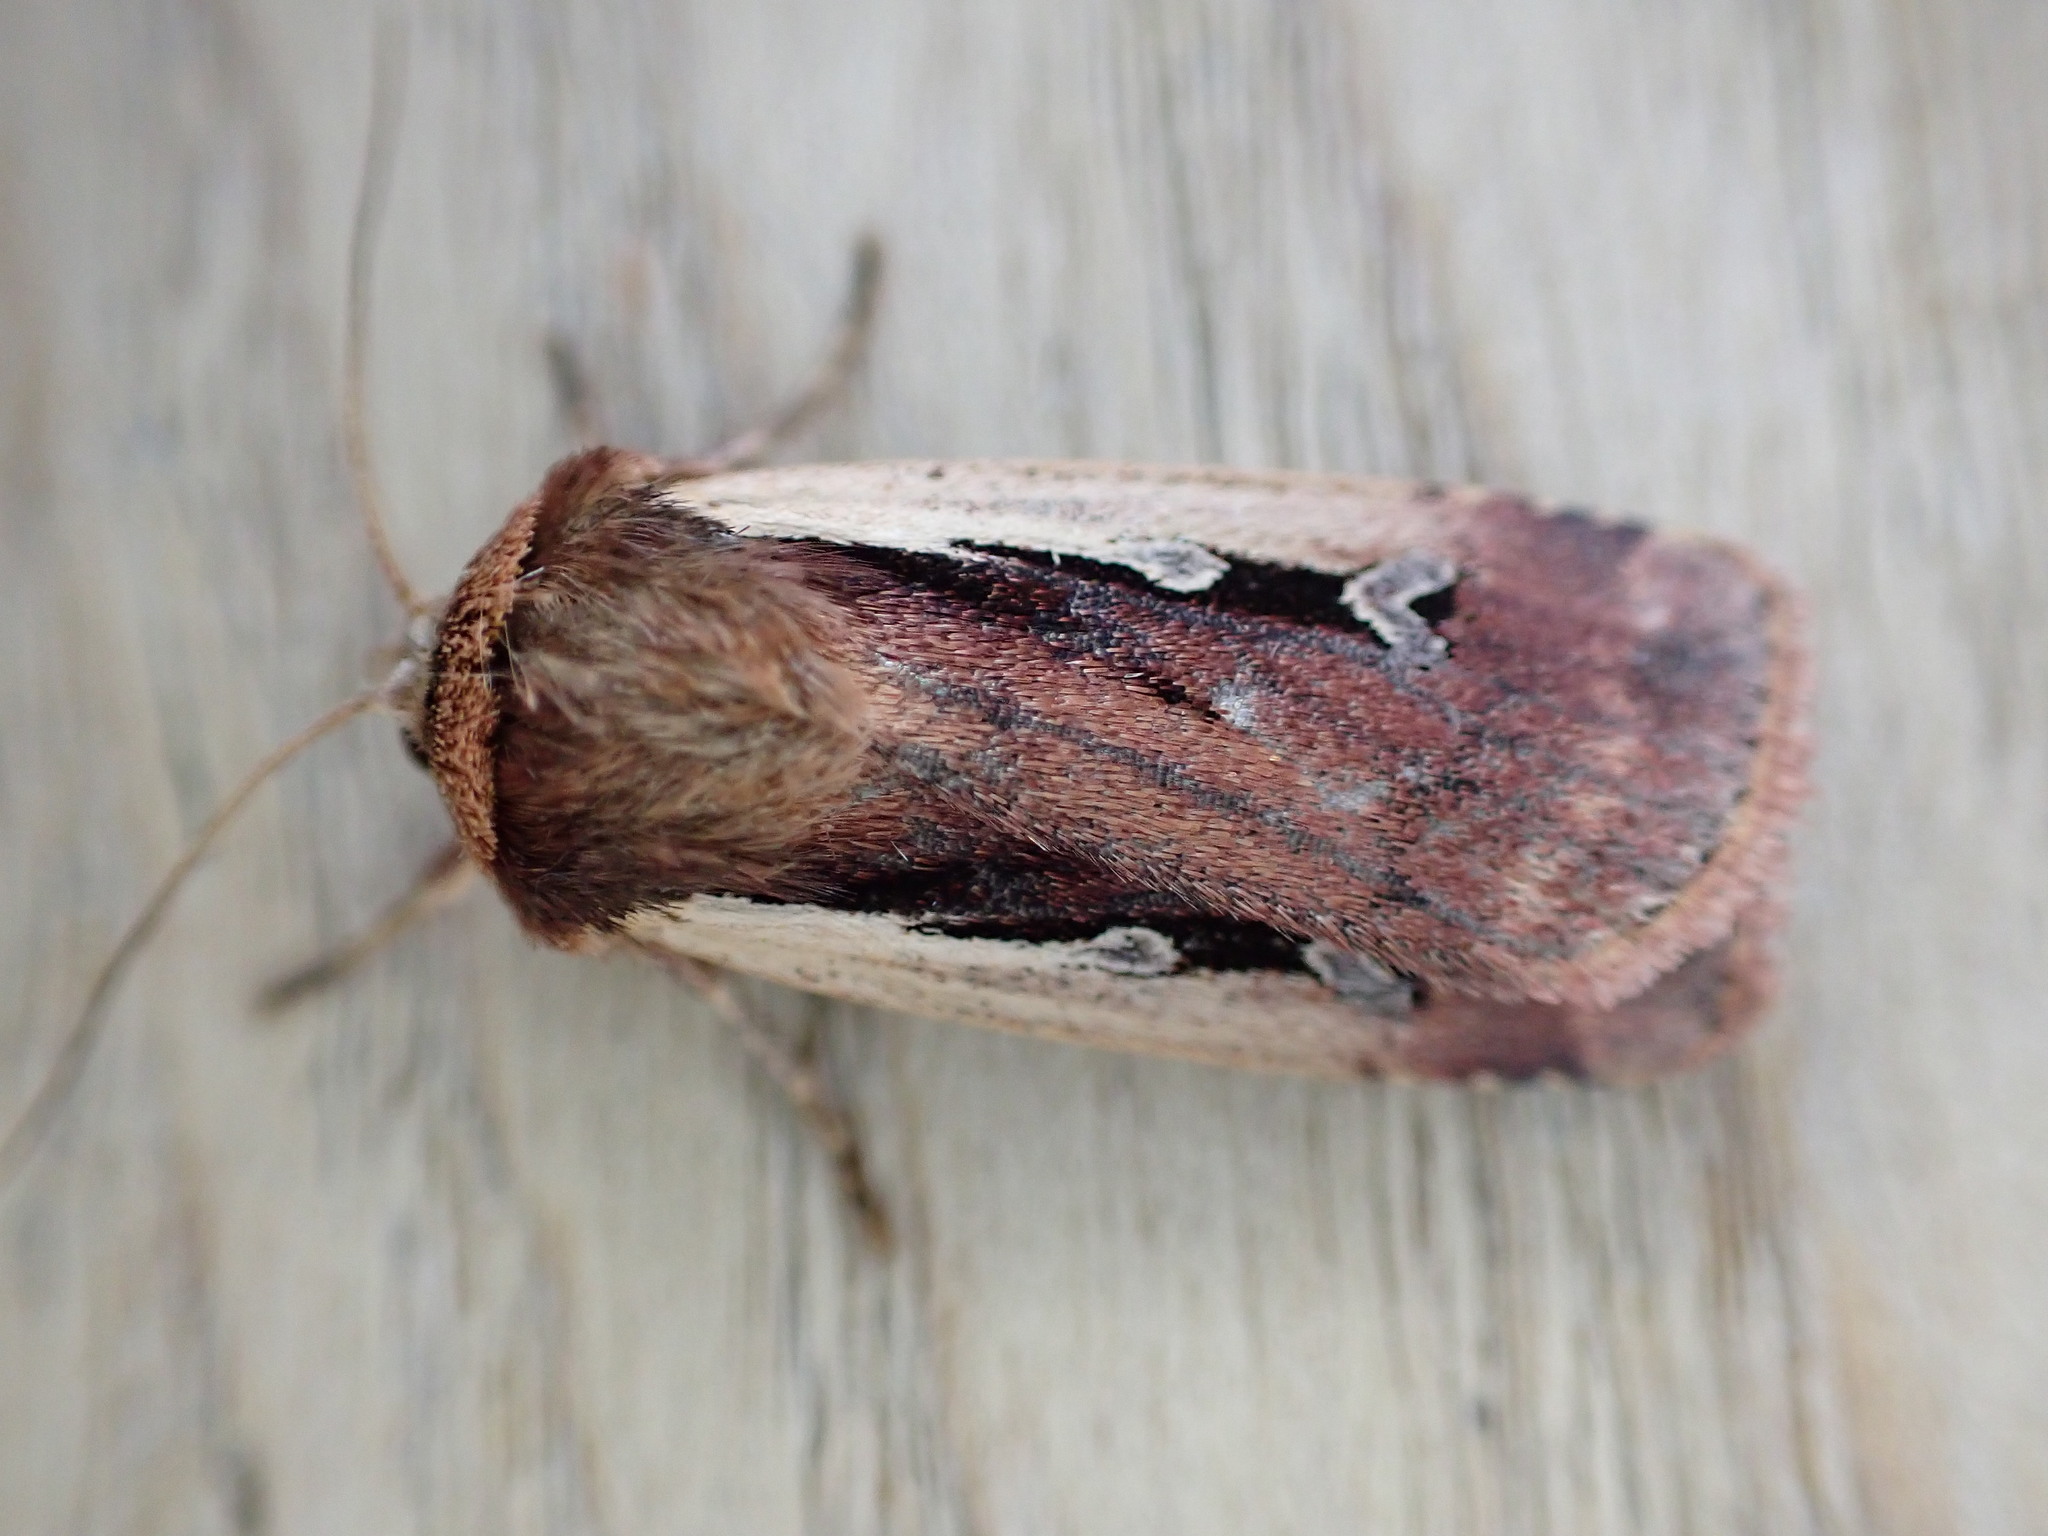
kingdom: Animalia
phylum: Arthropoda
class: Insecta
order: Lepidoptera
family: Noctuidae
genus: Ochropleura
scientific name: Ochropleura plecta
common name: Flame shoulder
